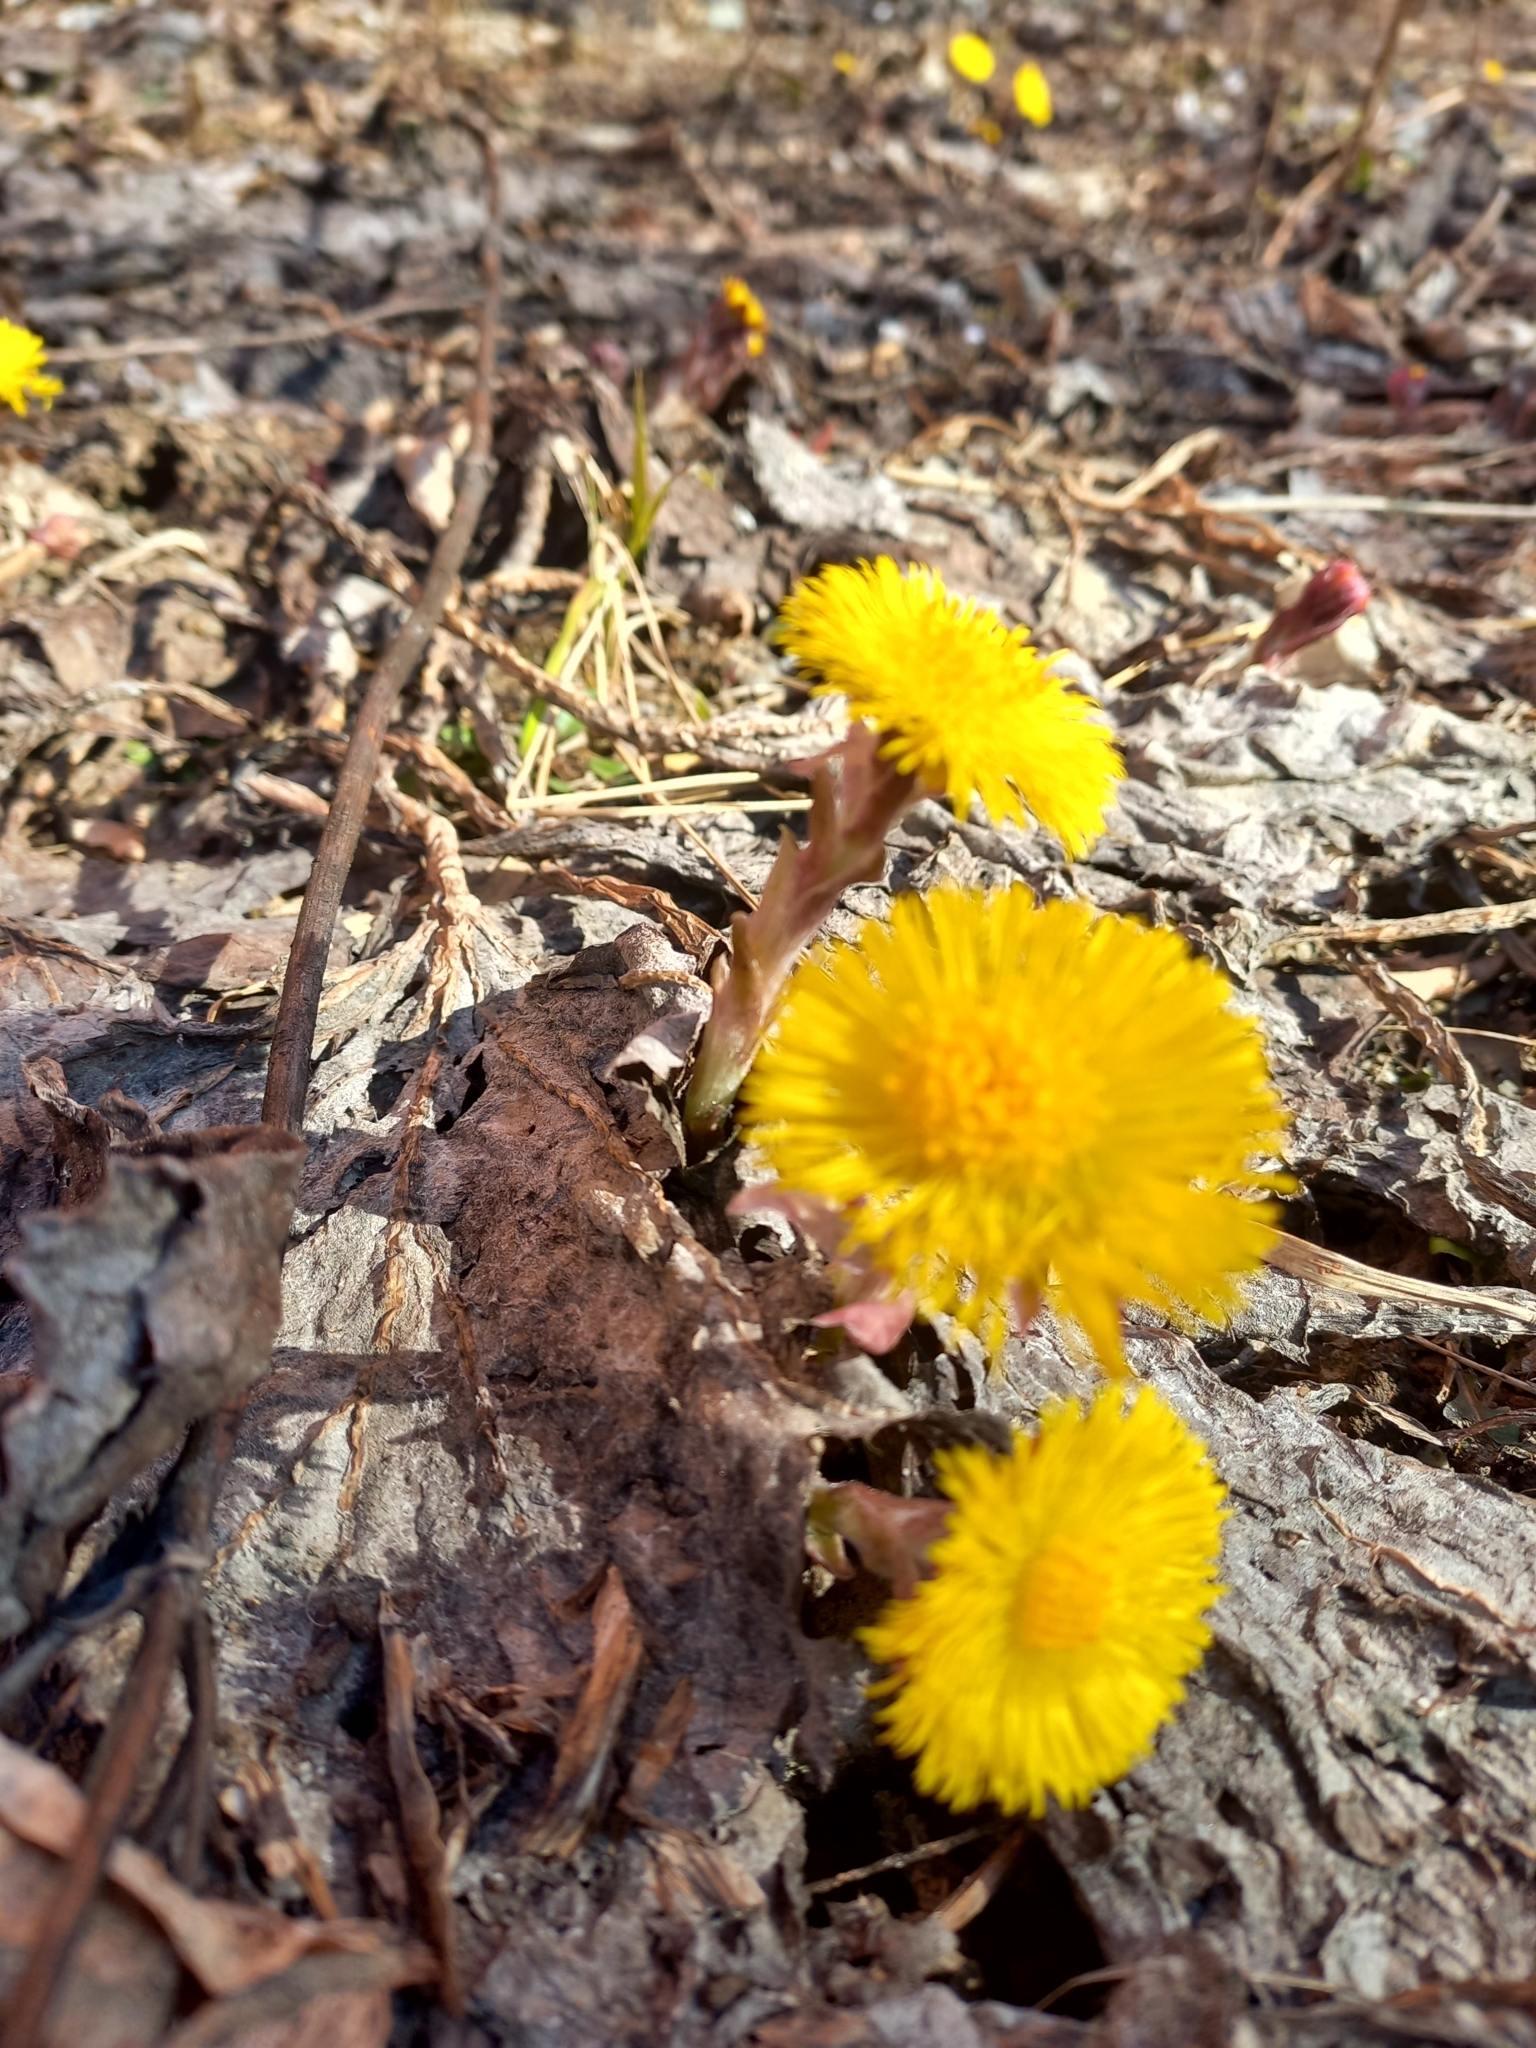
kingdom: Plantae
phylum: Tracheophyta
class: Magnoliopsida
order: Asterales
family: Asteraceae
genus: Tussilago
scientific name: Tussilago farfara
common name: Coltsfoot
